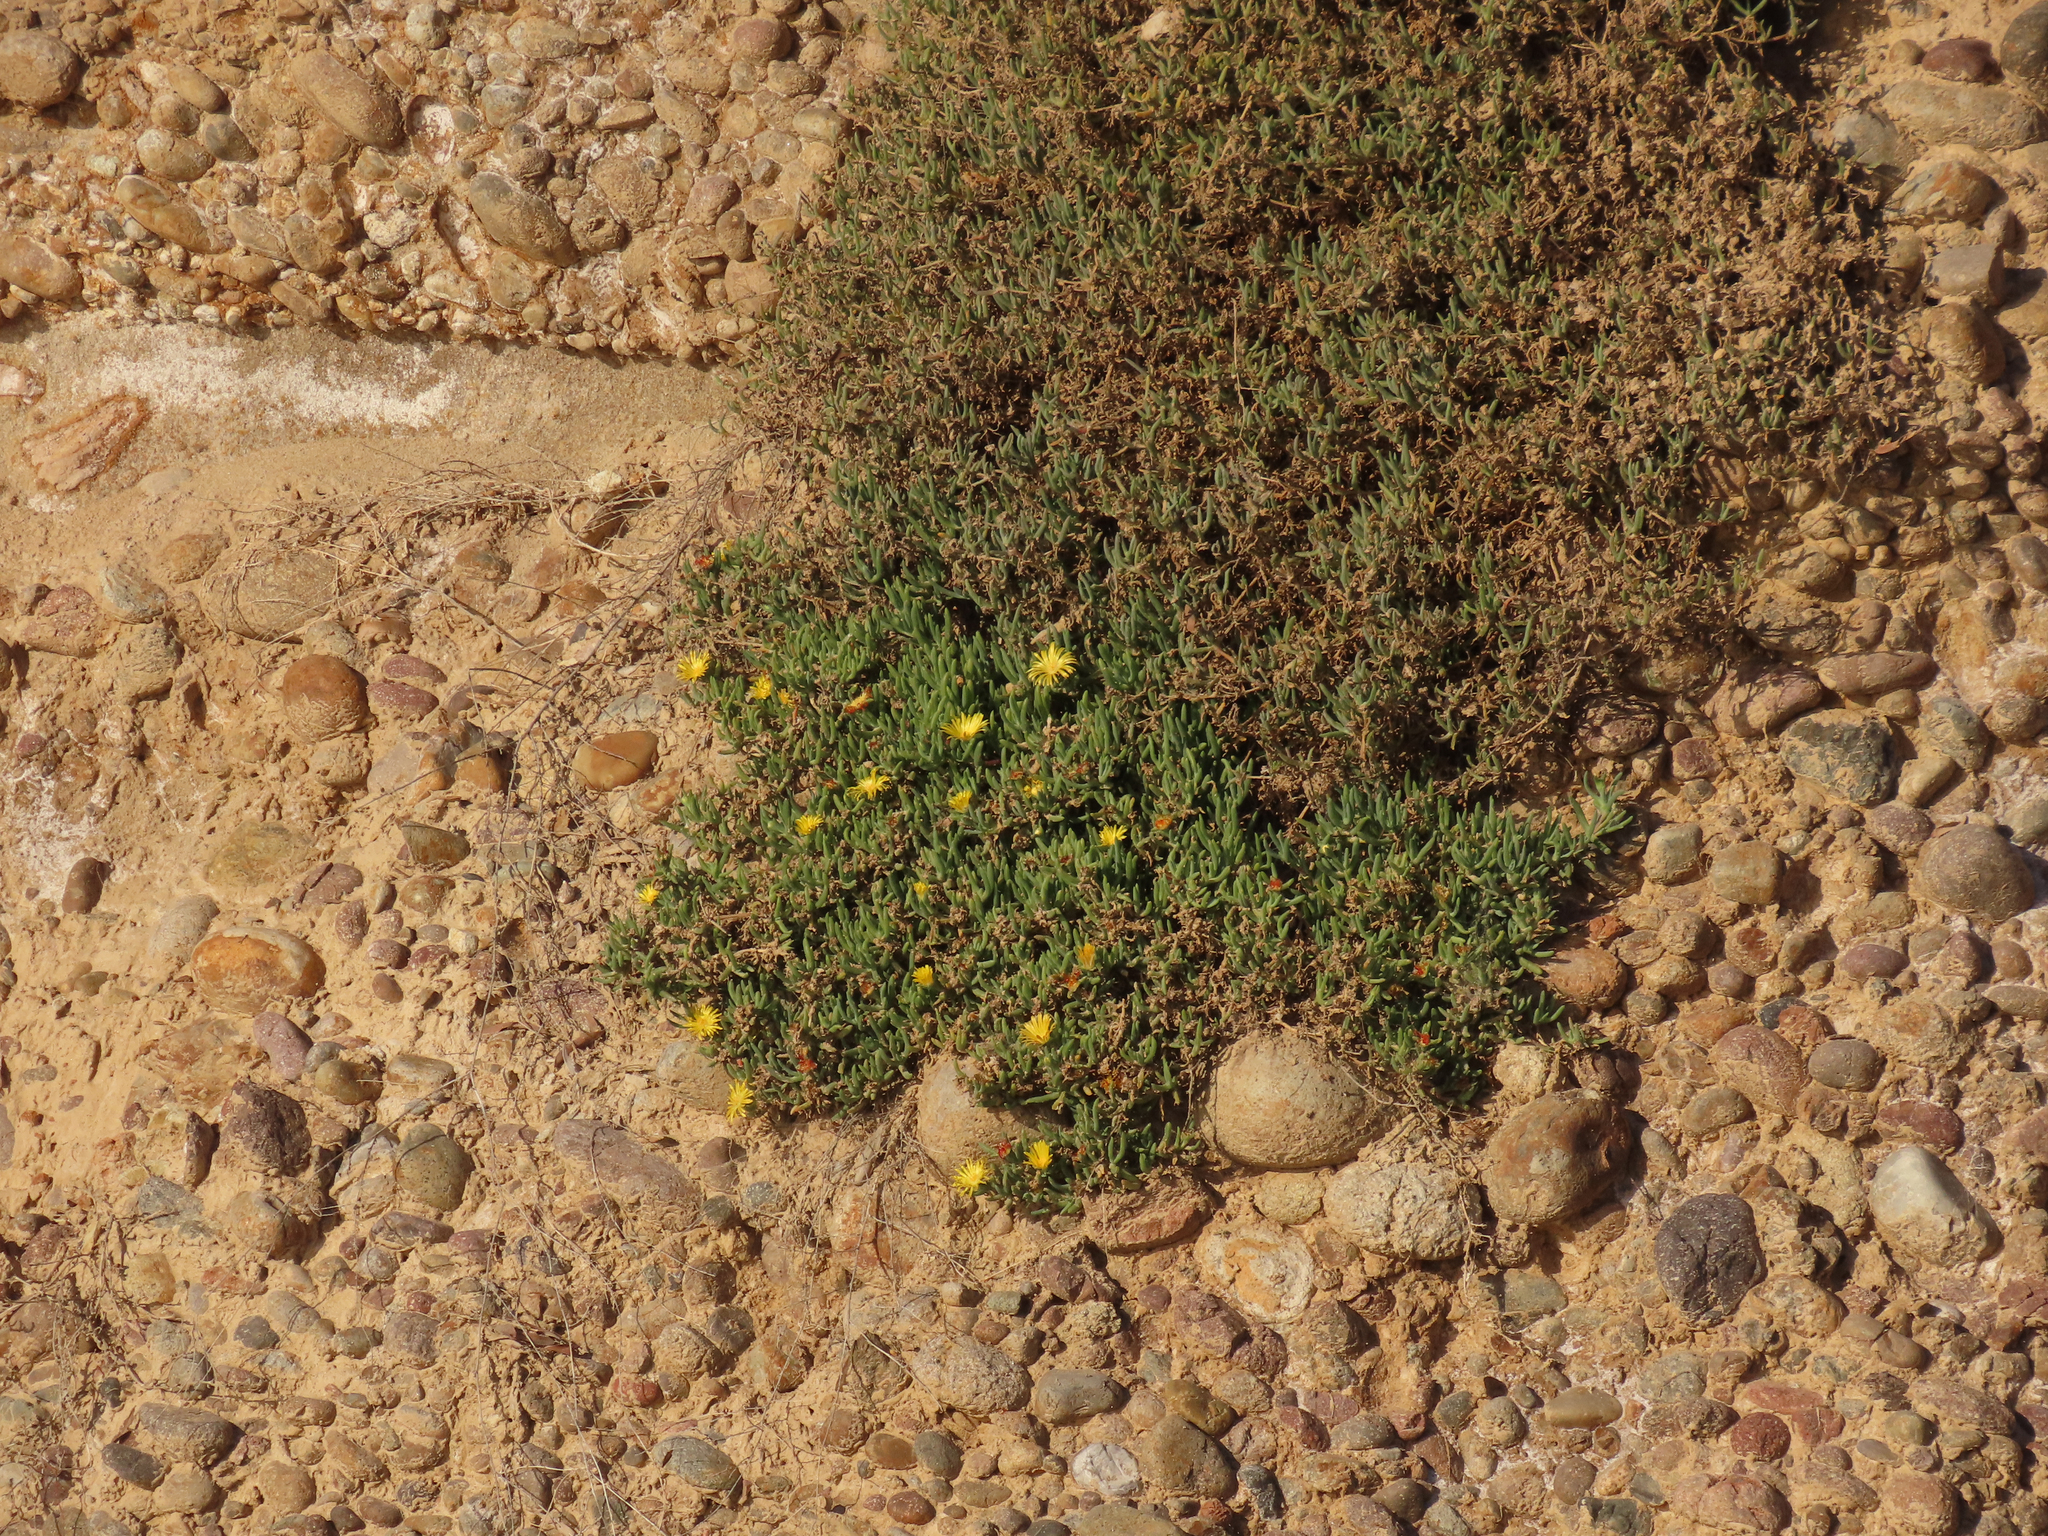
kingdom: Plantae
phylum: Tracheophyta
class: Magnoliopsida
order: Caryophyllales
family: Aizoaceae
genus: Malephora
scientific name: Malephora lutea
